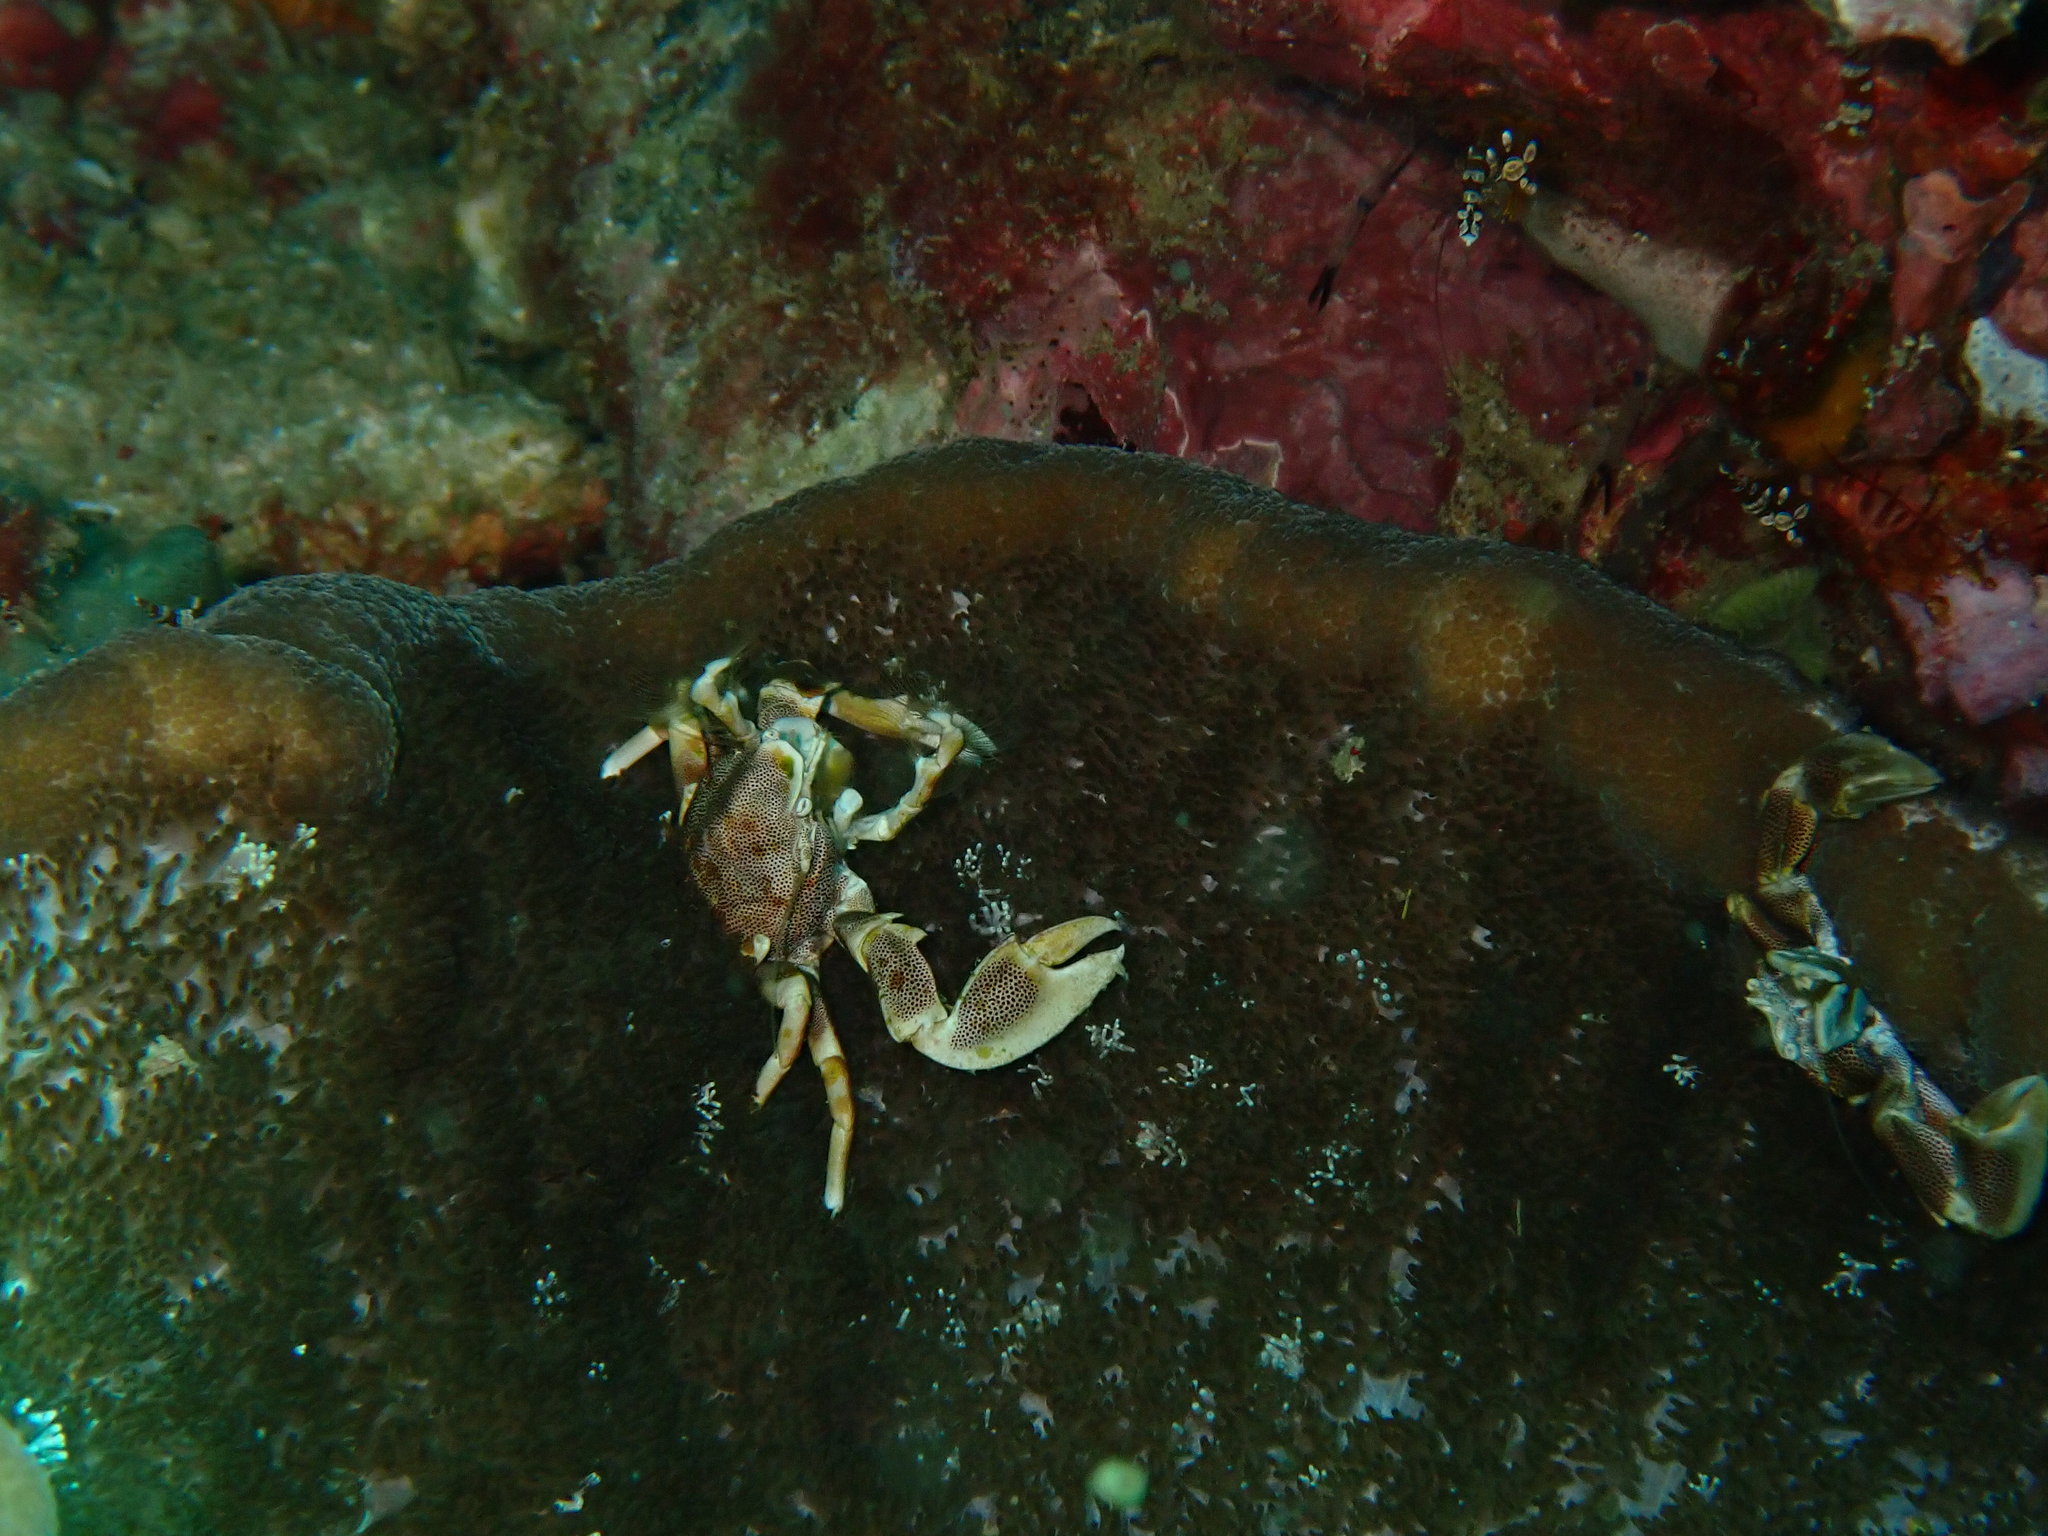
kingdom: Animalia
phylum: Arthropoda
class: Malacostraca
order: Decapoda
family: Porcellanidae
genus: Neopetrolisthes
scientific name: Neopetrolisthes maculatus
